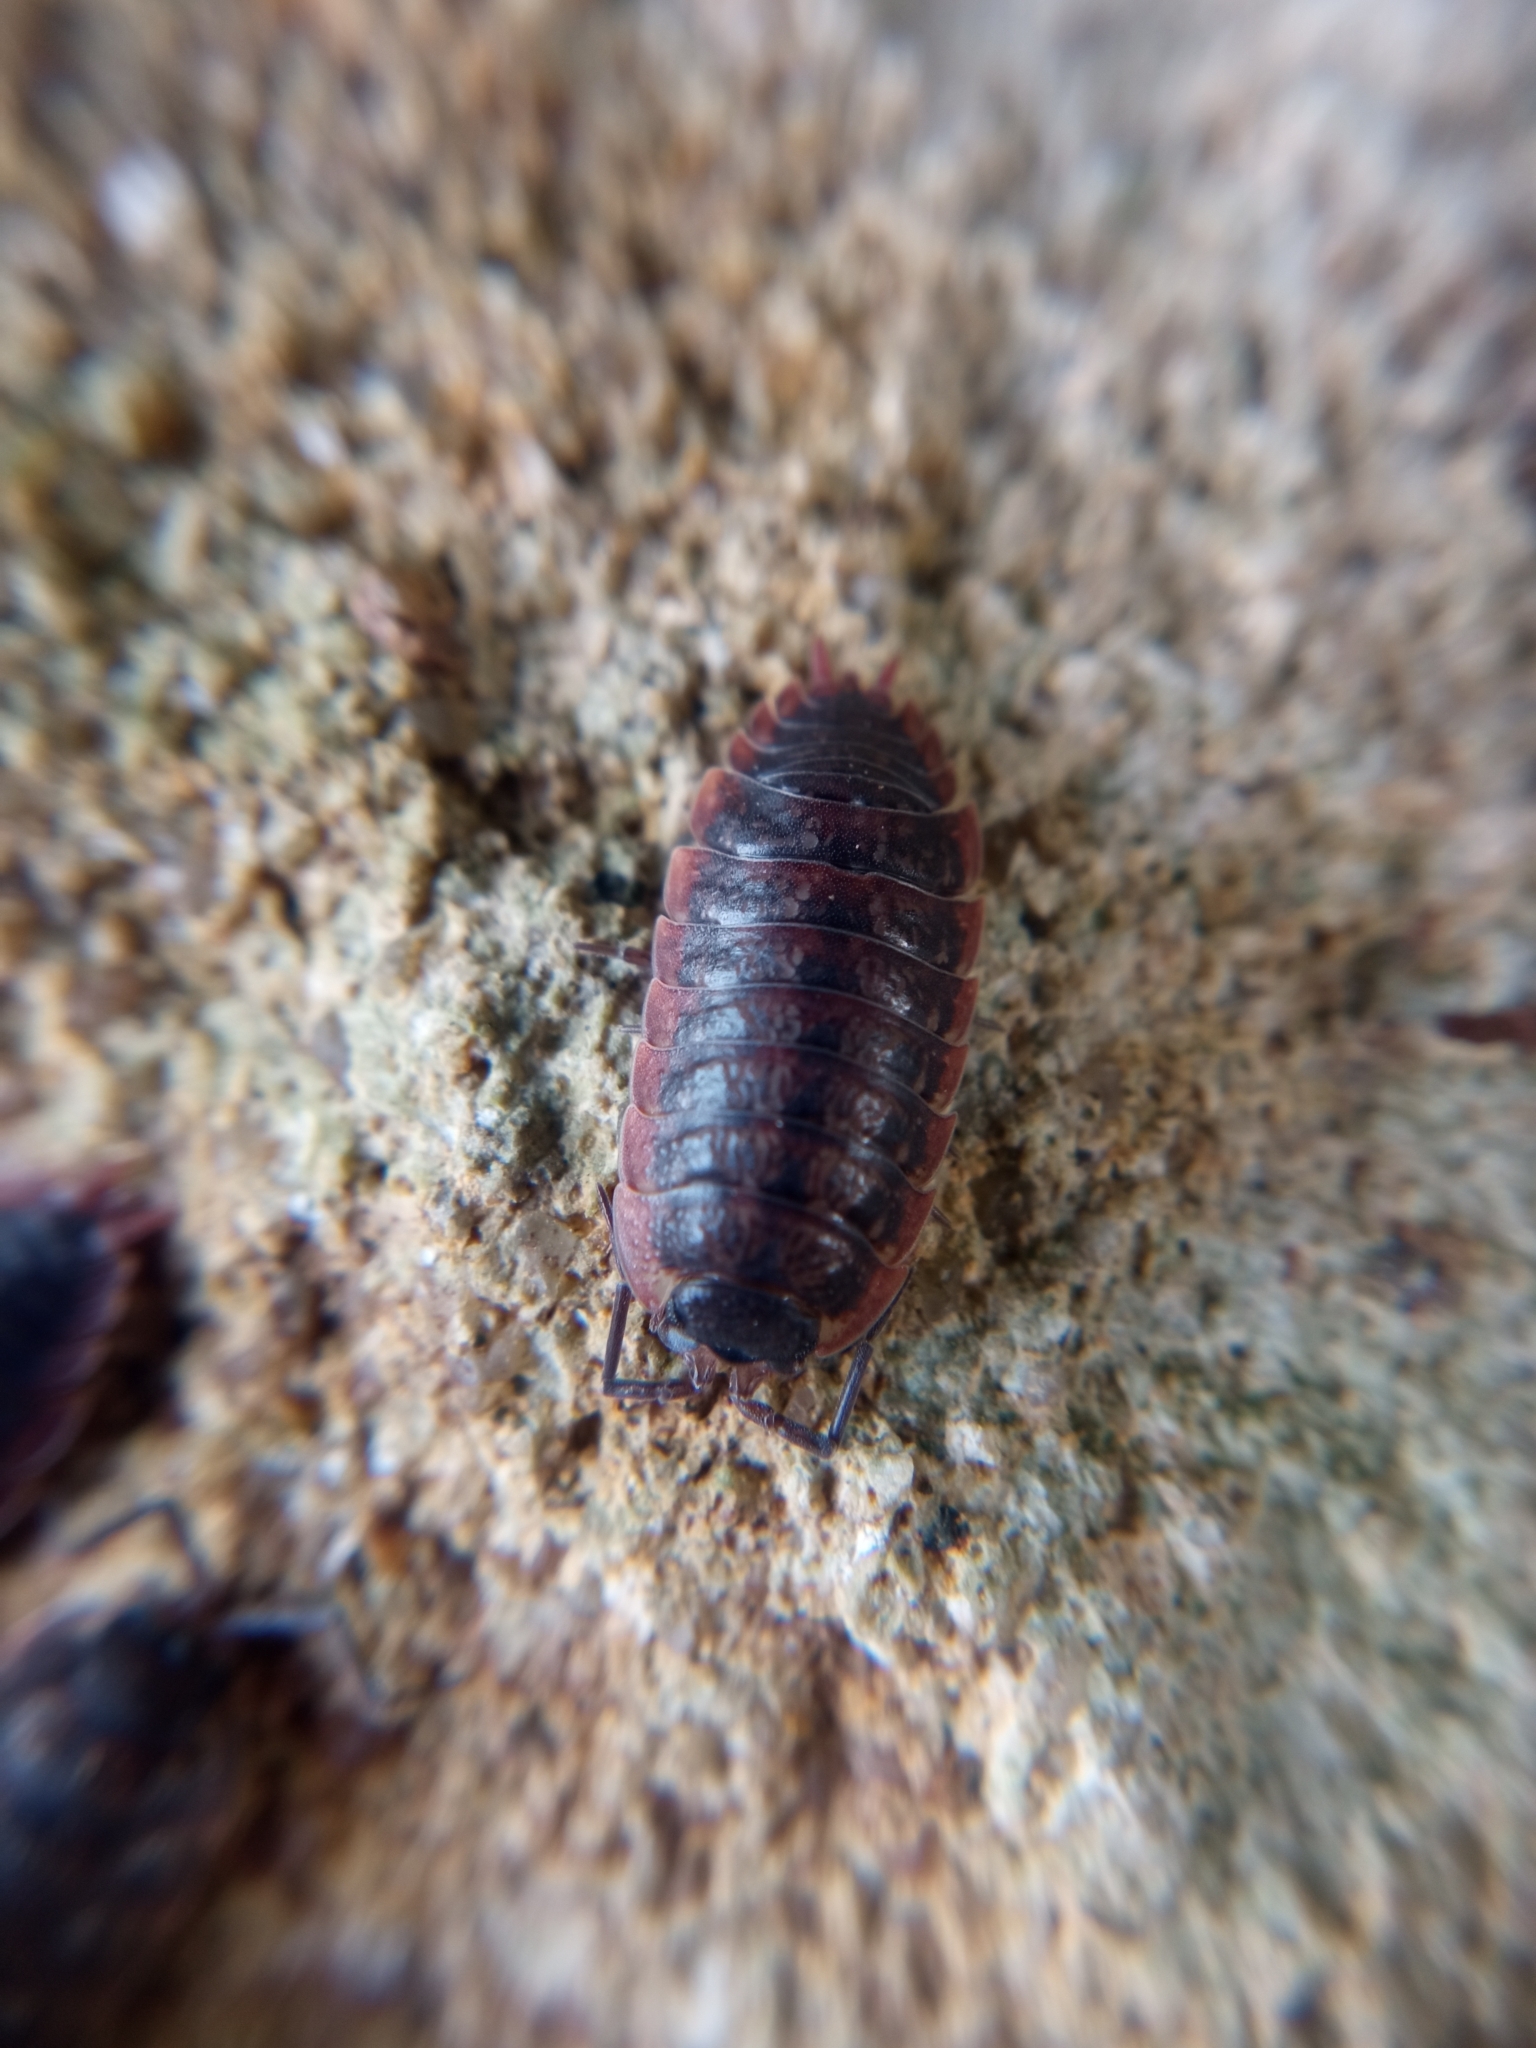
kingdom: Animalia
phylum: Arthropoda
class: Malacostraca
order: Isopoda
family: Porcellionidae
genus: Porcellio
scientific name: Porcellio montanus
